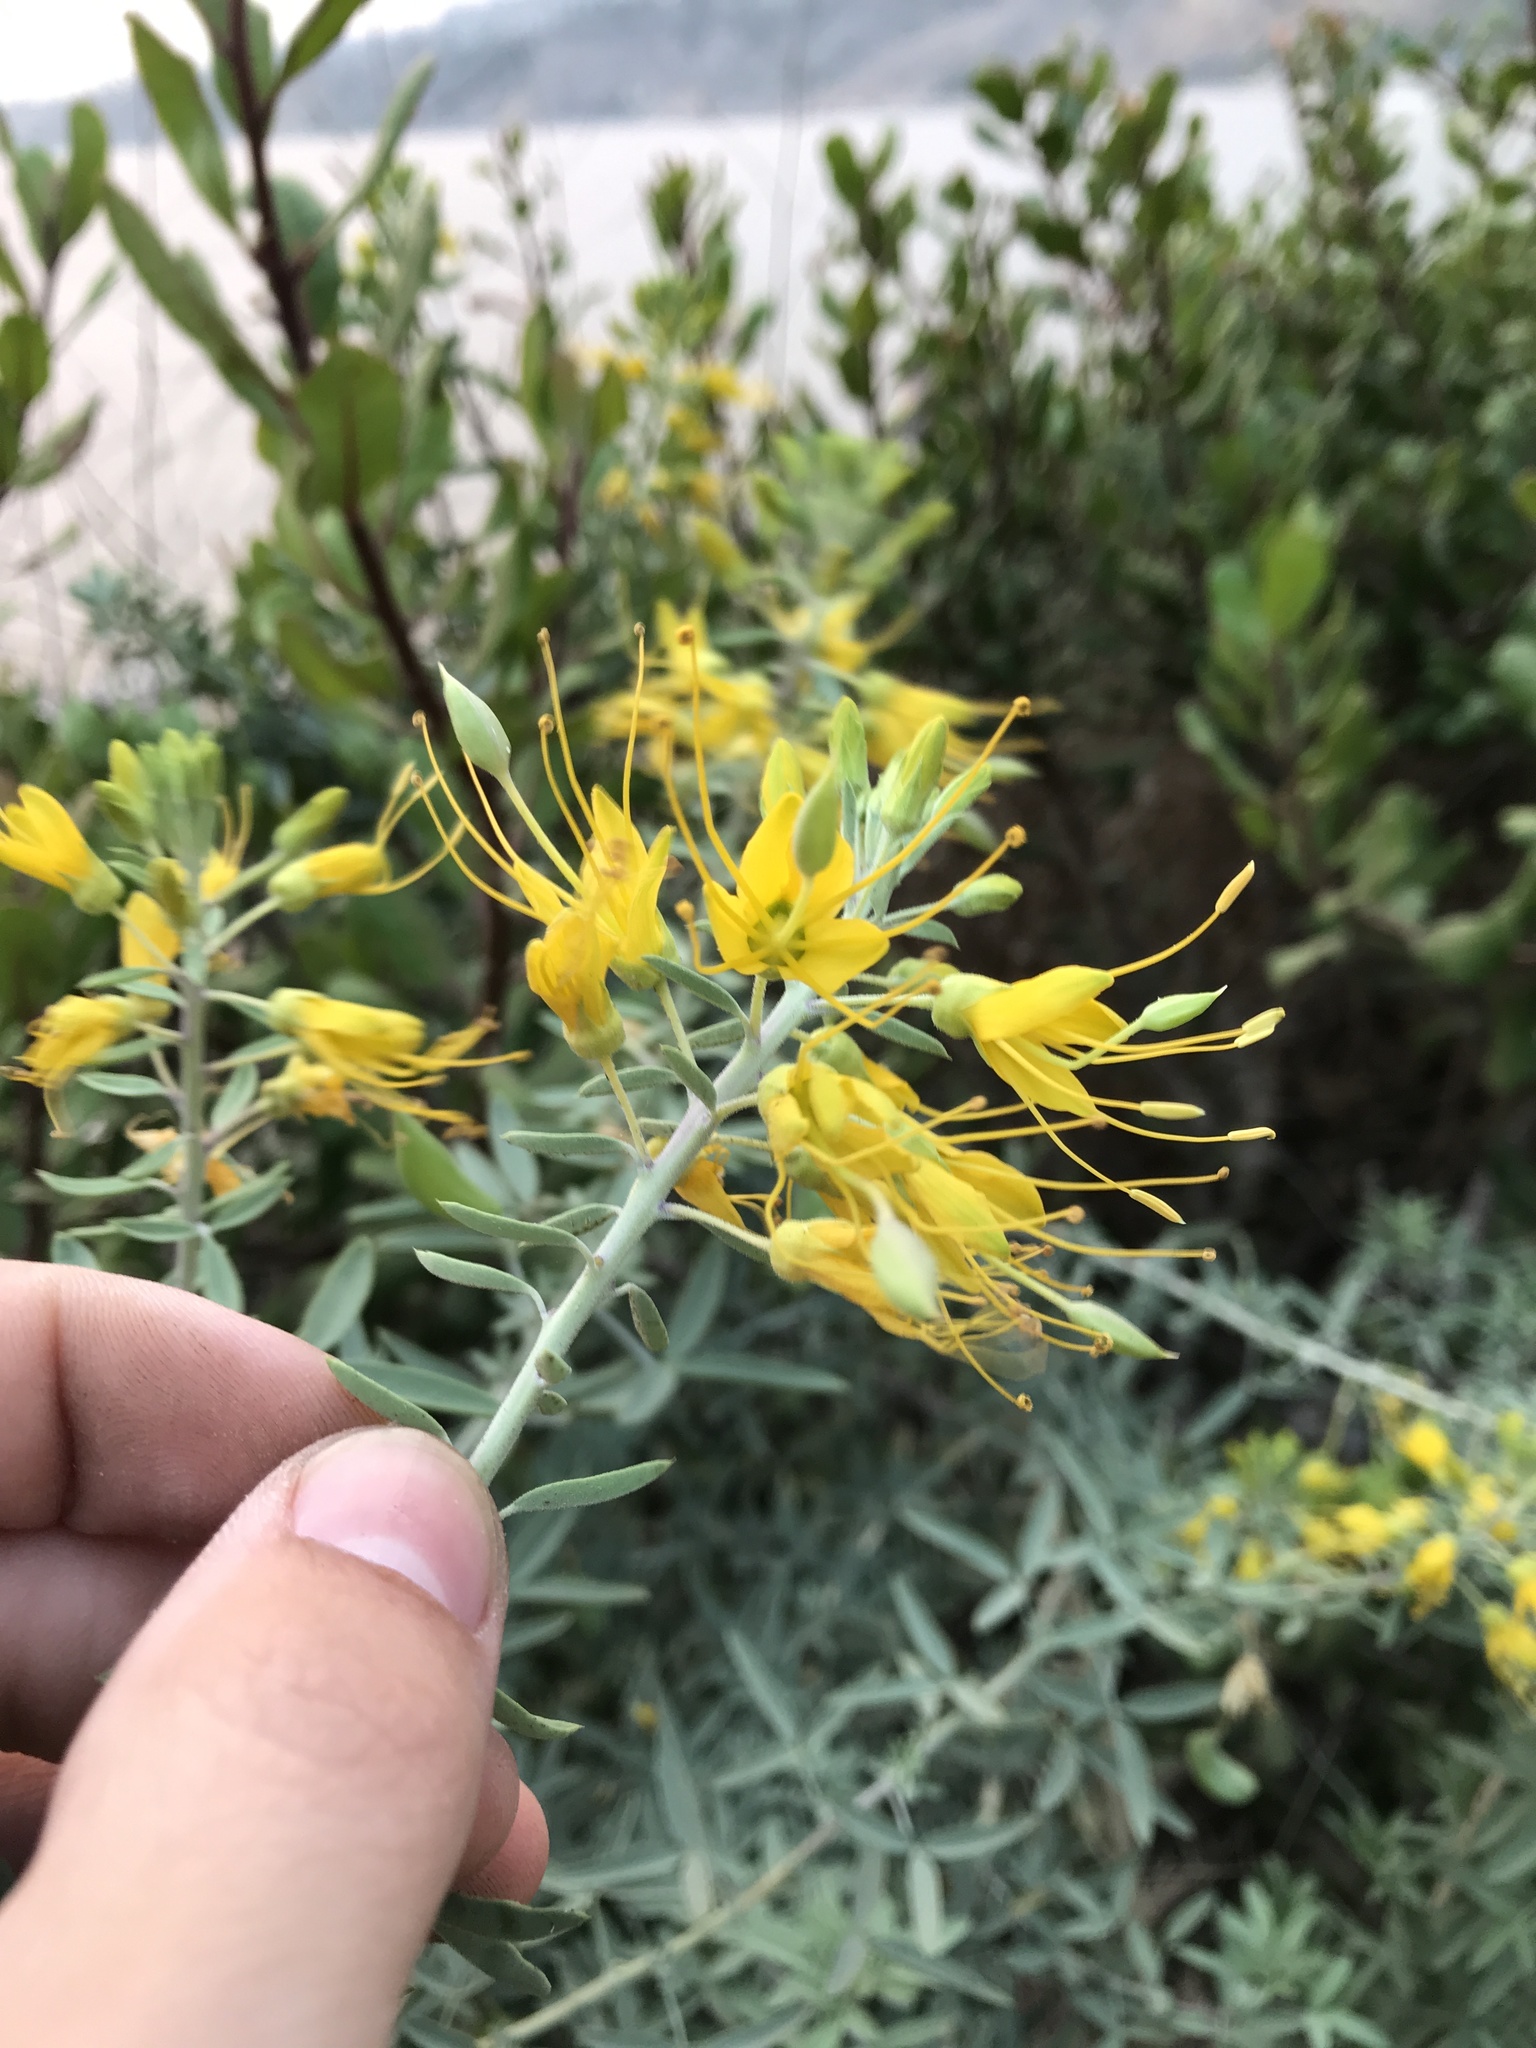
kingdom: Plantae
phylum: Tracheophyta
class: Magnoliopsida
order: Brassicales
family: Cleomaceae
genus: Cleomella
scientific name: Cleomella arborea
